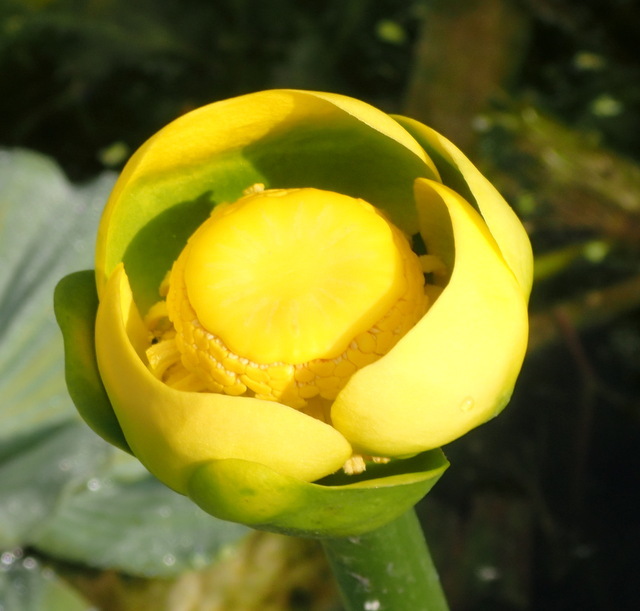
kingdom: Plantae
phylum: Tracheophyta
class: Magnoliopsida
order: Nymphaeales
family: Nymphaeaceae
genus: Nuphar
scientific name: Nuphar advena
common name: Spatter-dock
